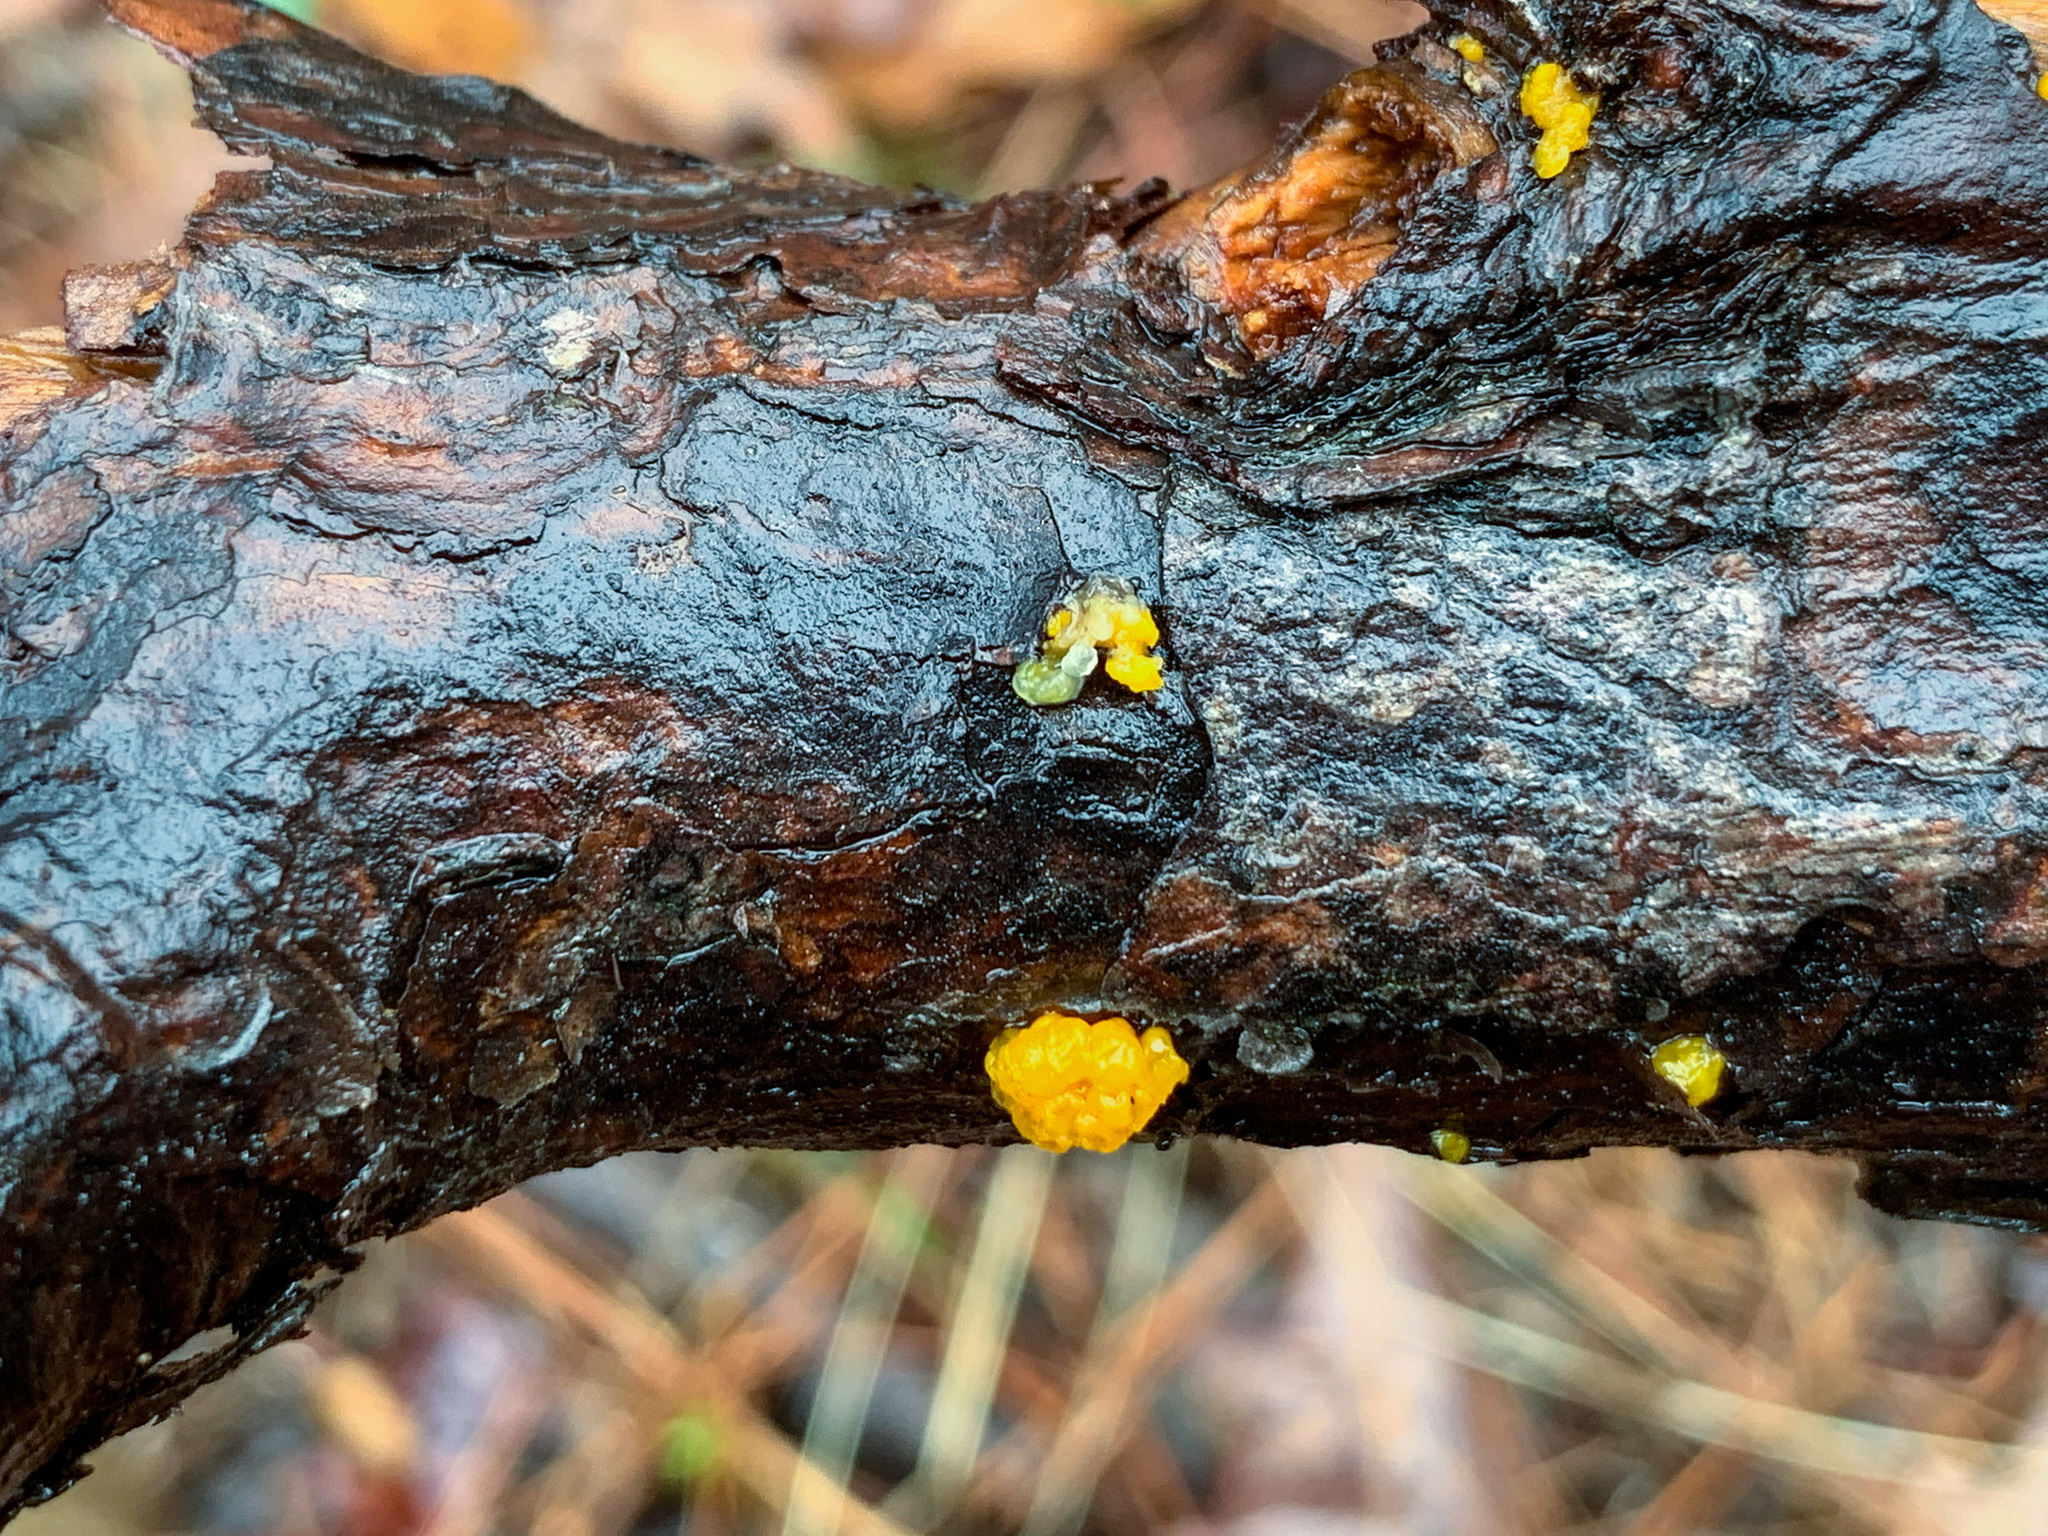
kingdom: Fungi
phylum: Basidiomycota
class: Dacrymycetes
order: Dacrymycetales
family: Dacrymycetaceae
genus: Dacrymyces
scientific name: Dacrymyces chrysospermus
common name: Orange jelly spot
